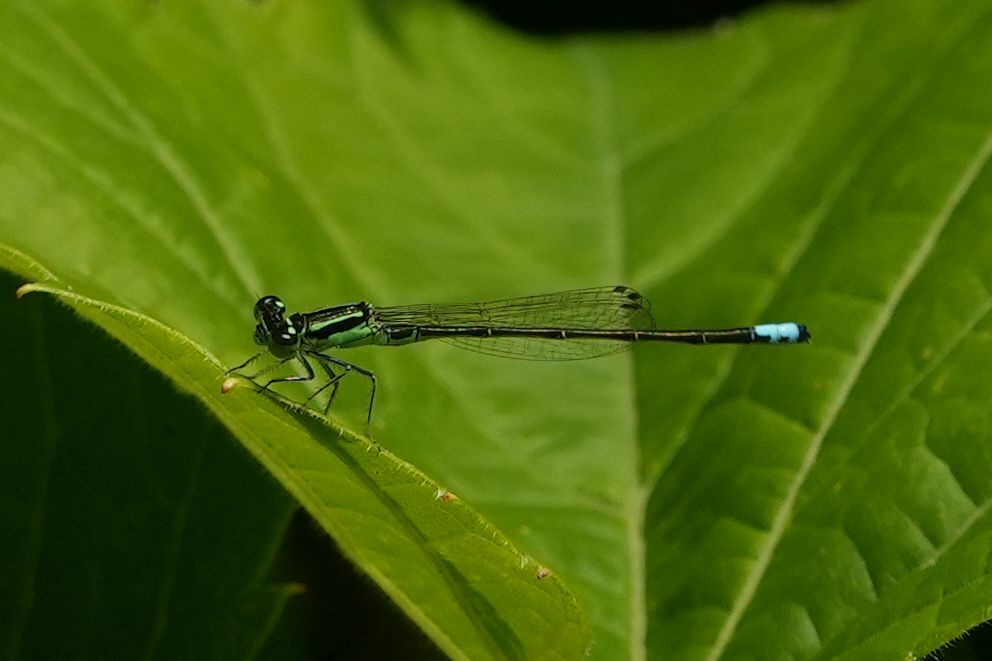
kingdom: Animalia
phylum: Arthropoda
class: Insecta
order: Odonata
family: Coenagrionidae
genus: Ischnura
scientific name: Ischnura verticalis
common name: Eastern forktail
